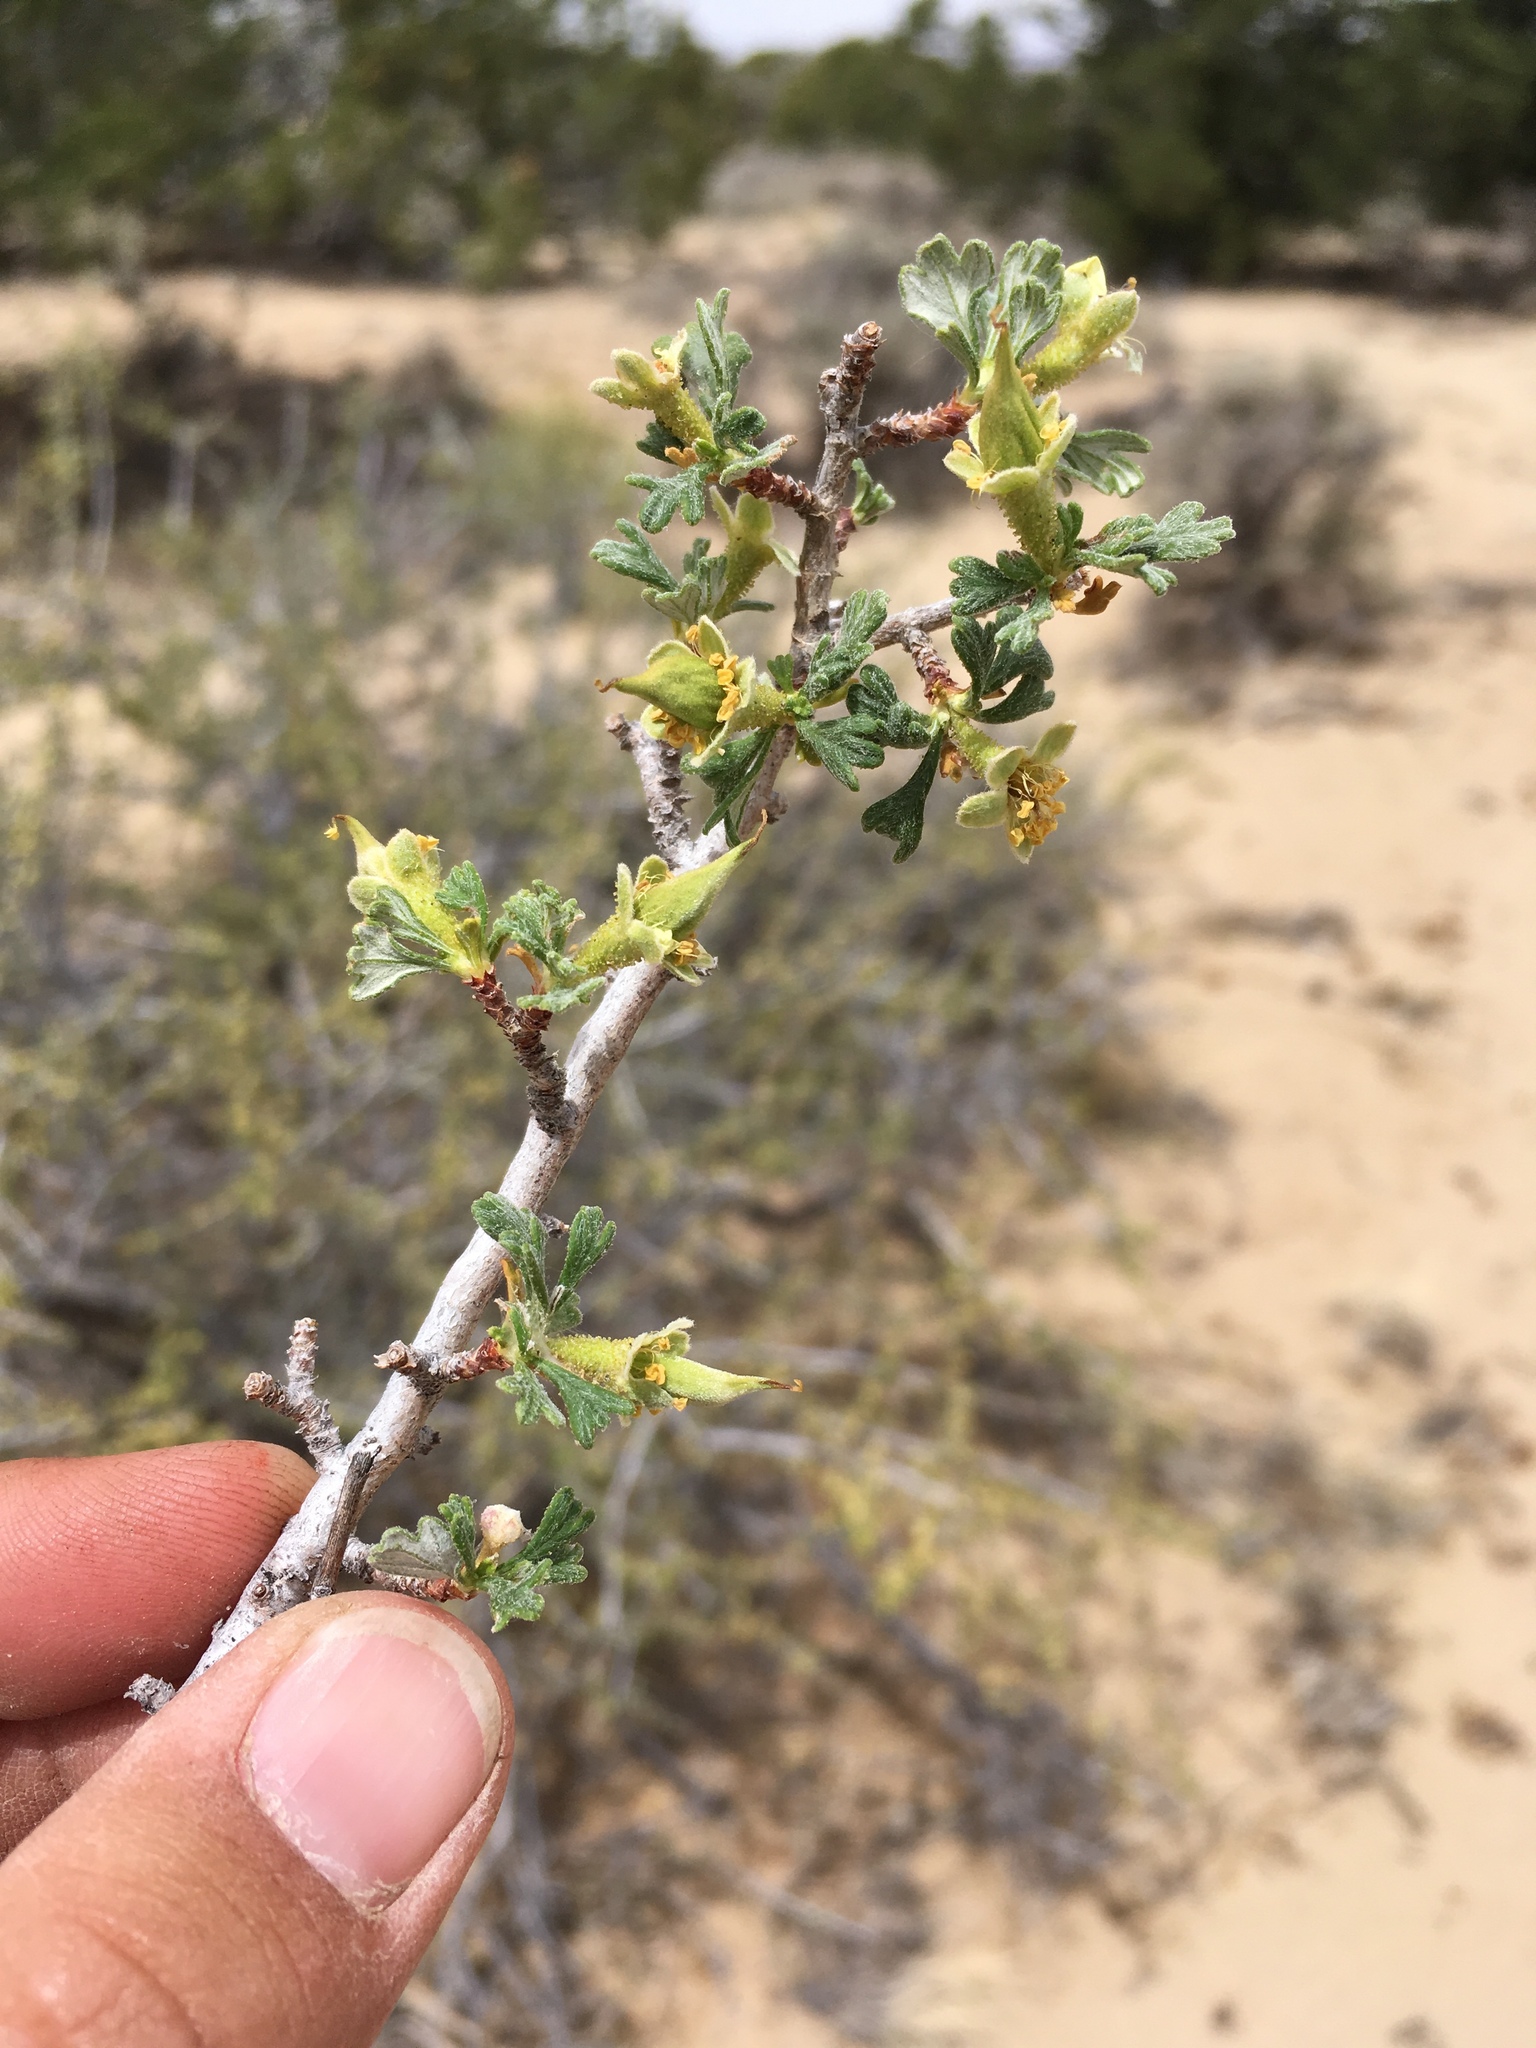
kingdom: Plantae
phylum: Tracheophyta
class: Magnoliopsida
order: Rosales
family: Rosaceae
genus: Purshia
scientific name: Purshia tridentata
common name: Antelope bitterbrush
